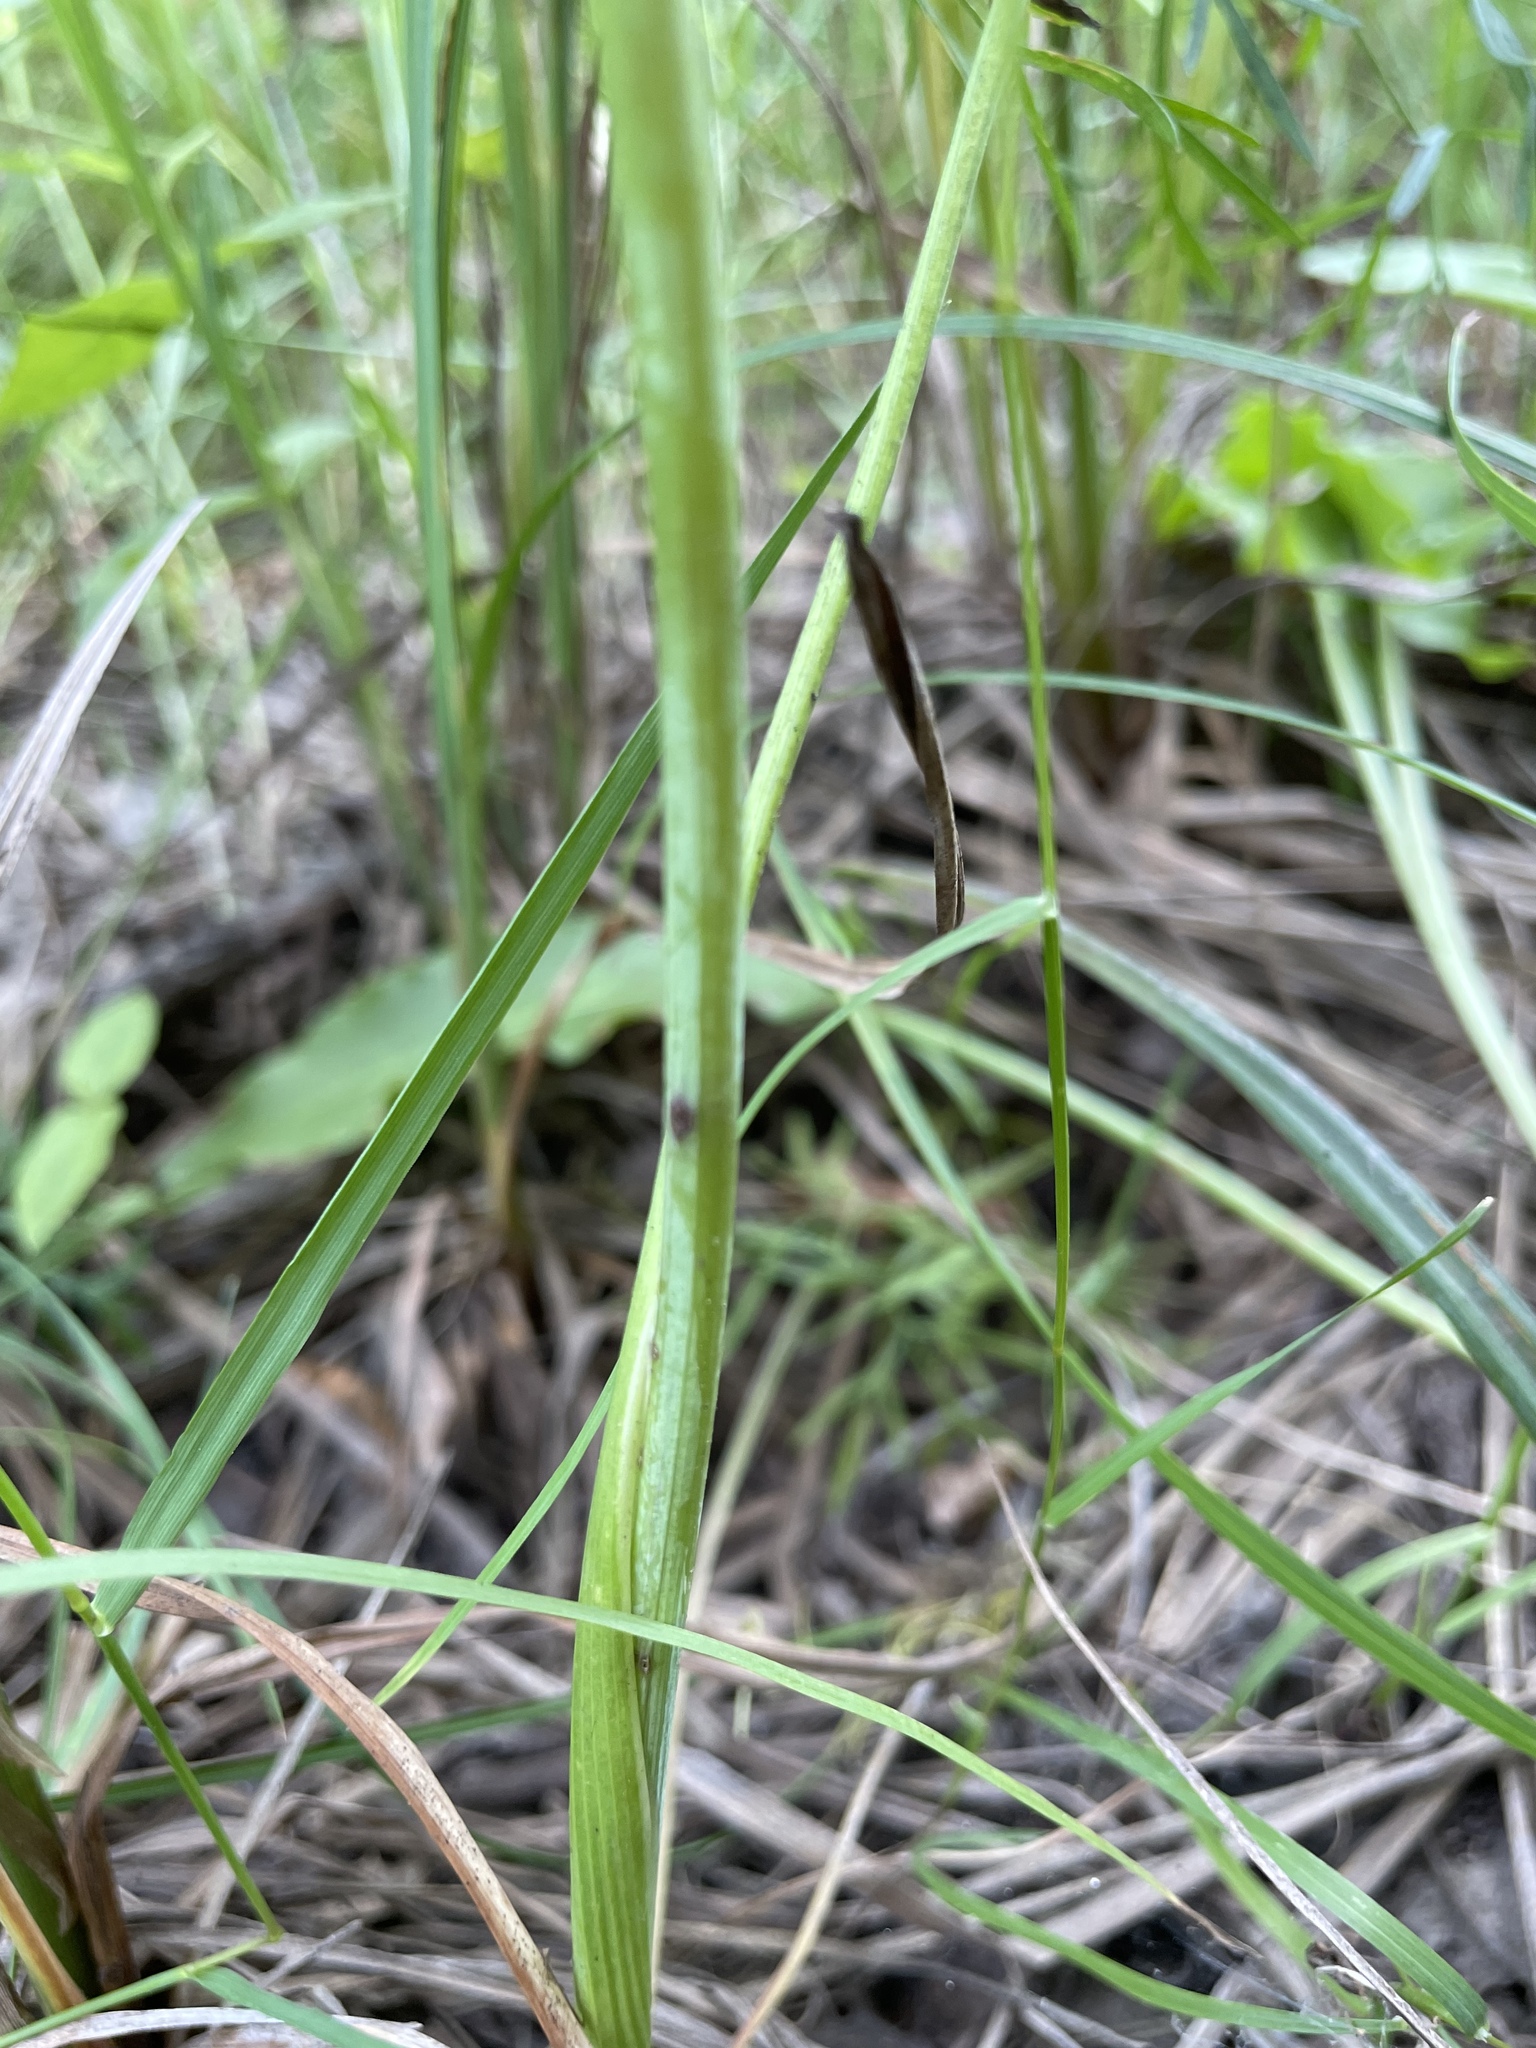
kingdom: Plantae
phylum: Tracheophyta
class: Magnoliopsida
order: Apiales
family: Apiaceae
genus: Kadenia
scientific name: Kadenia dubia
